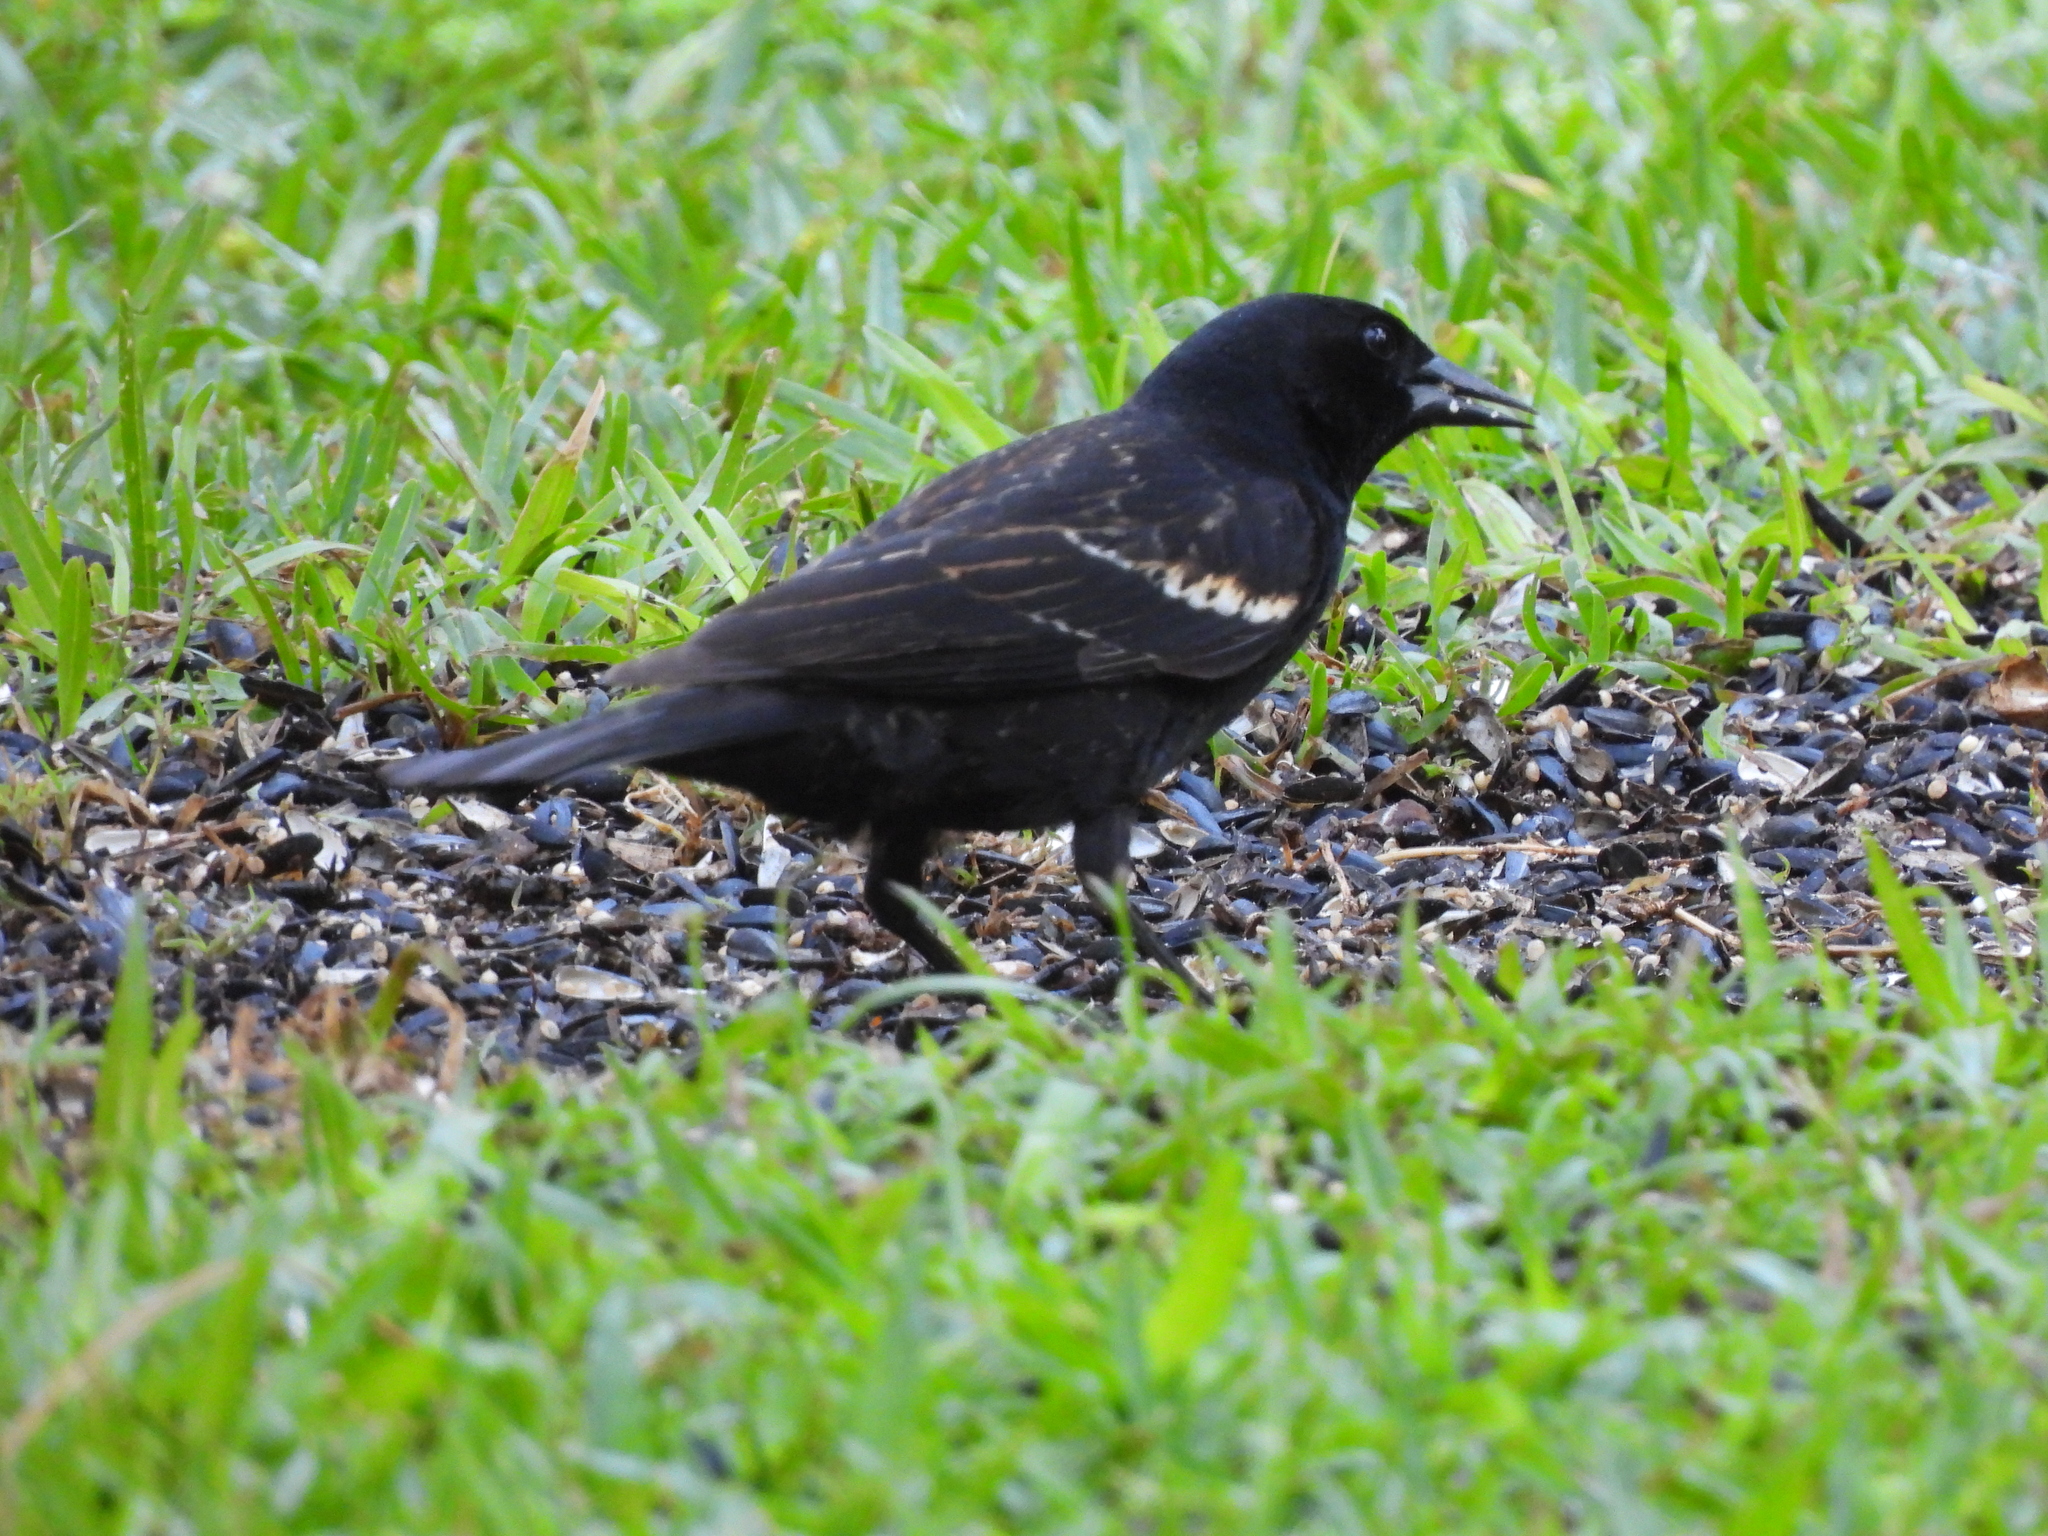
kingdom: Animalia
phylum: Chordata
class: Aves
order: Passeriformes
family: Icteridae
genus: Agelaius
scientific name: Agelaius phoeniceus
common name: Red-winged blackbird
